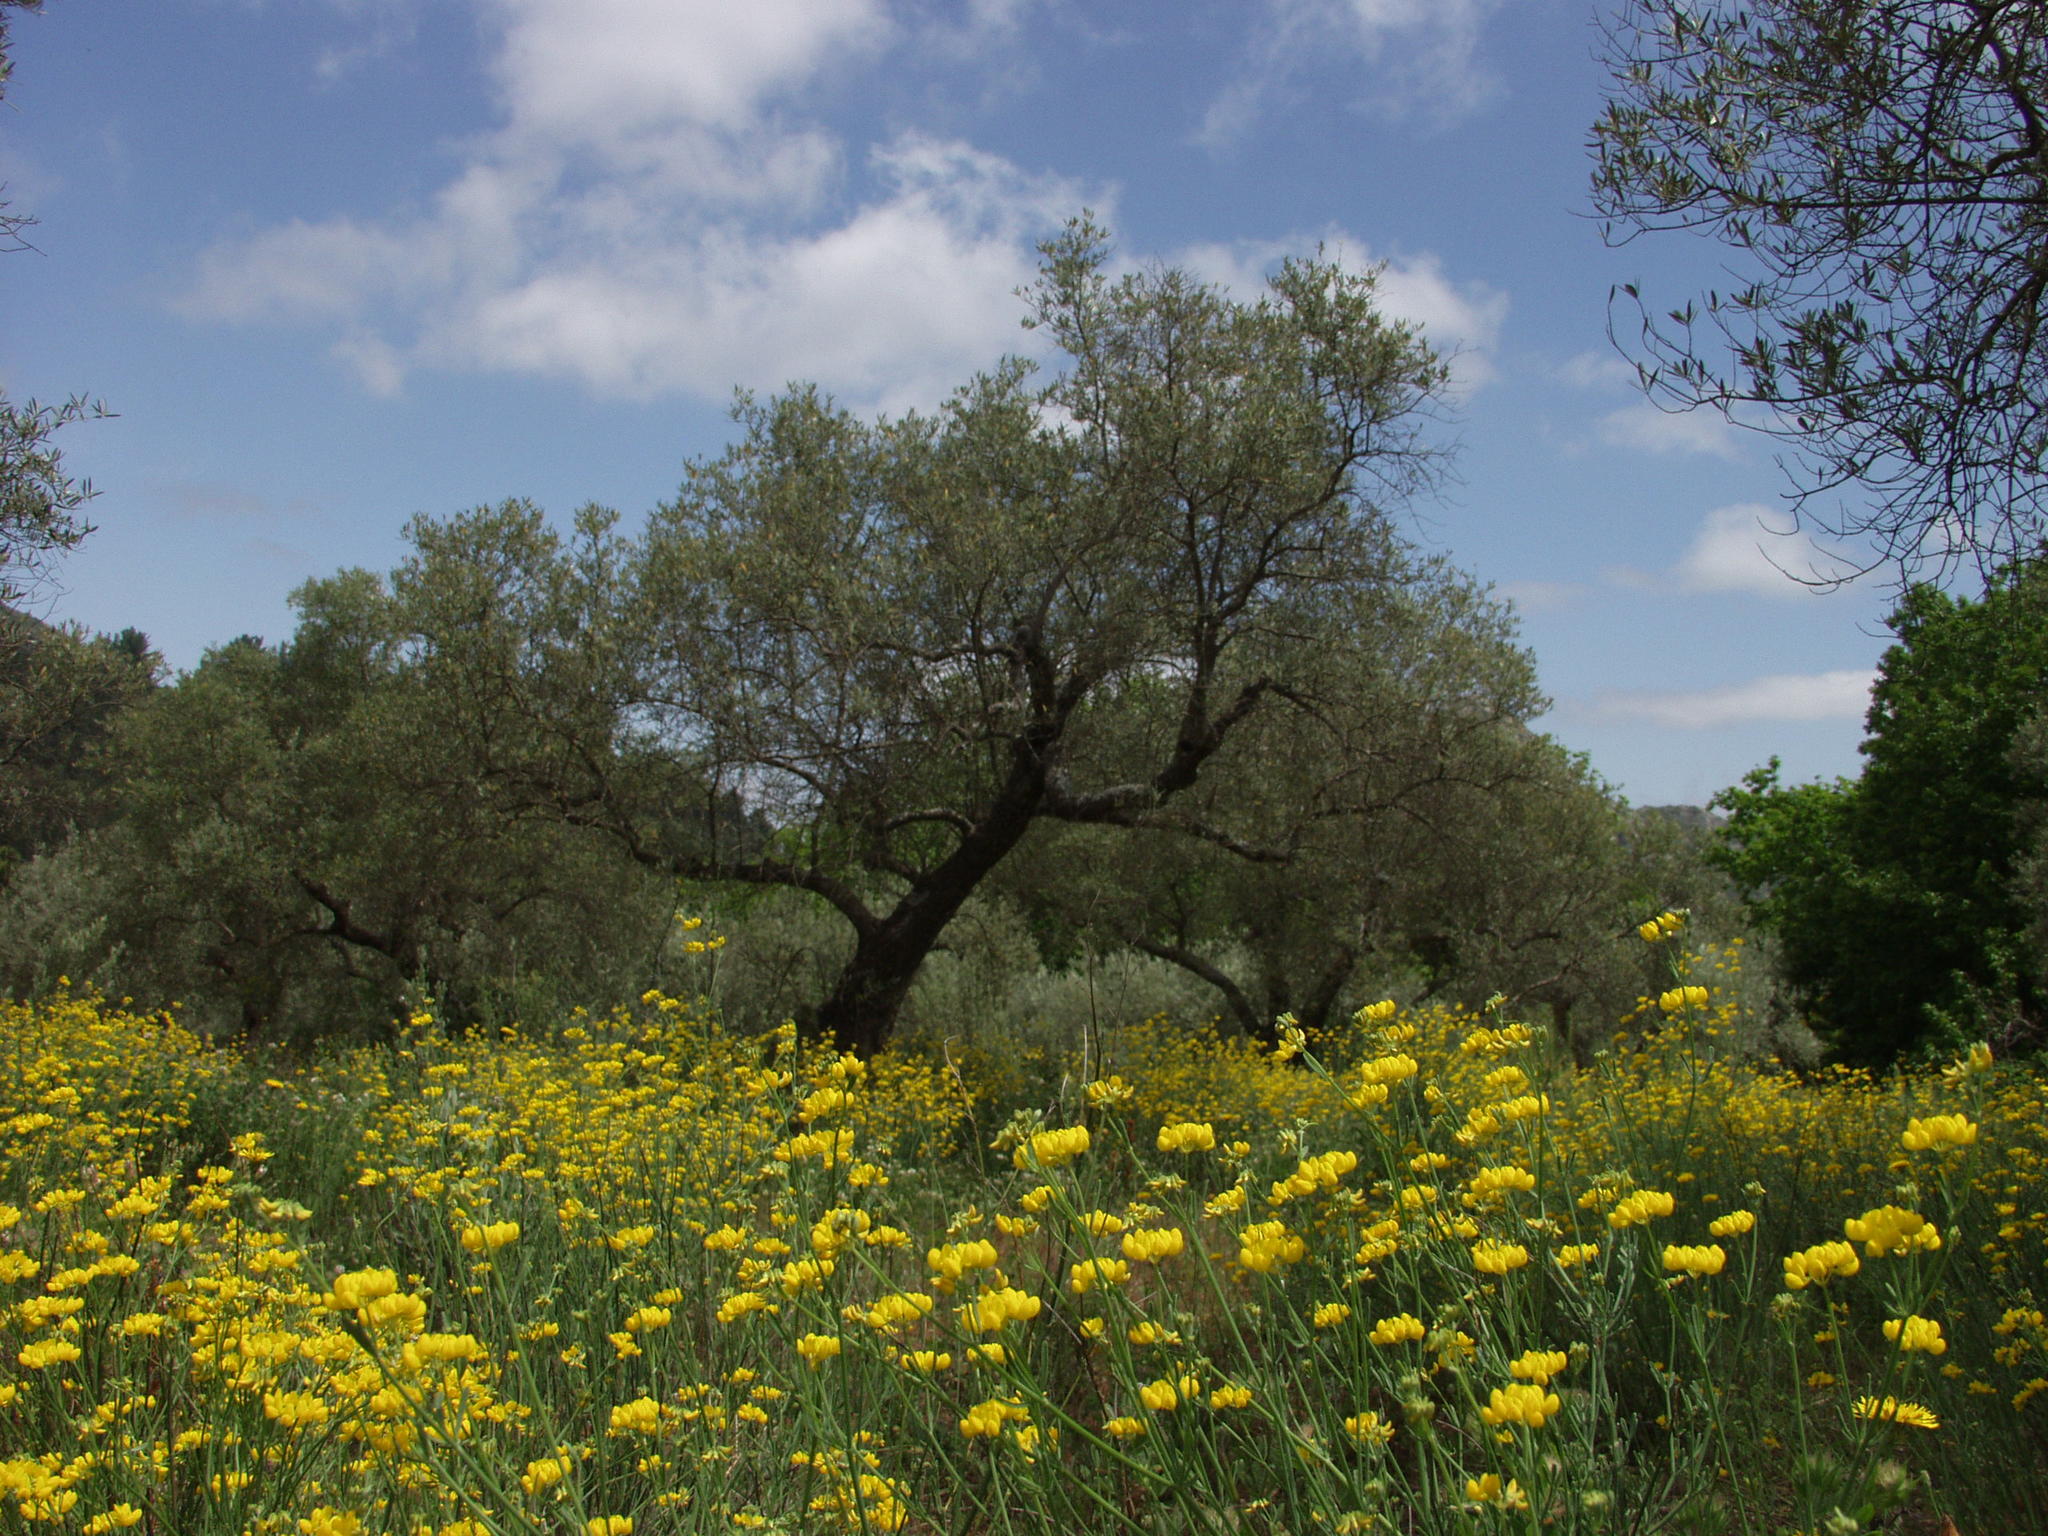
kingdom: Plantae
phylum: Tracheophyta
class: Magnoliopsida
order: Fabales
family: Fabaceae
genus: Coronilla
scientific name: Coronilla juncea
